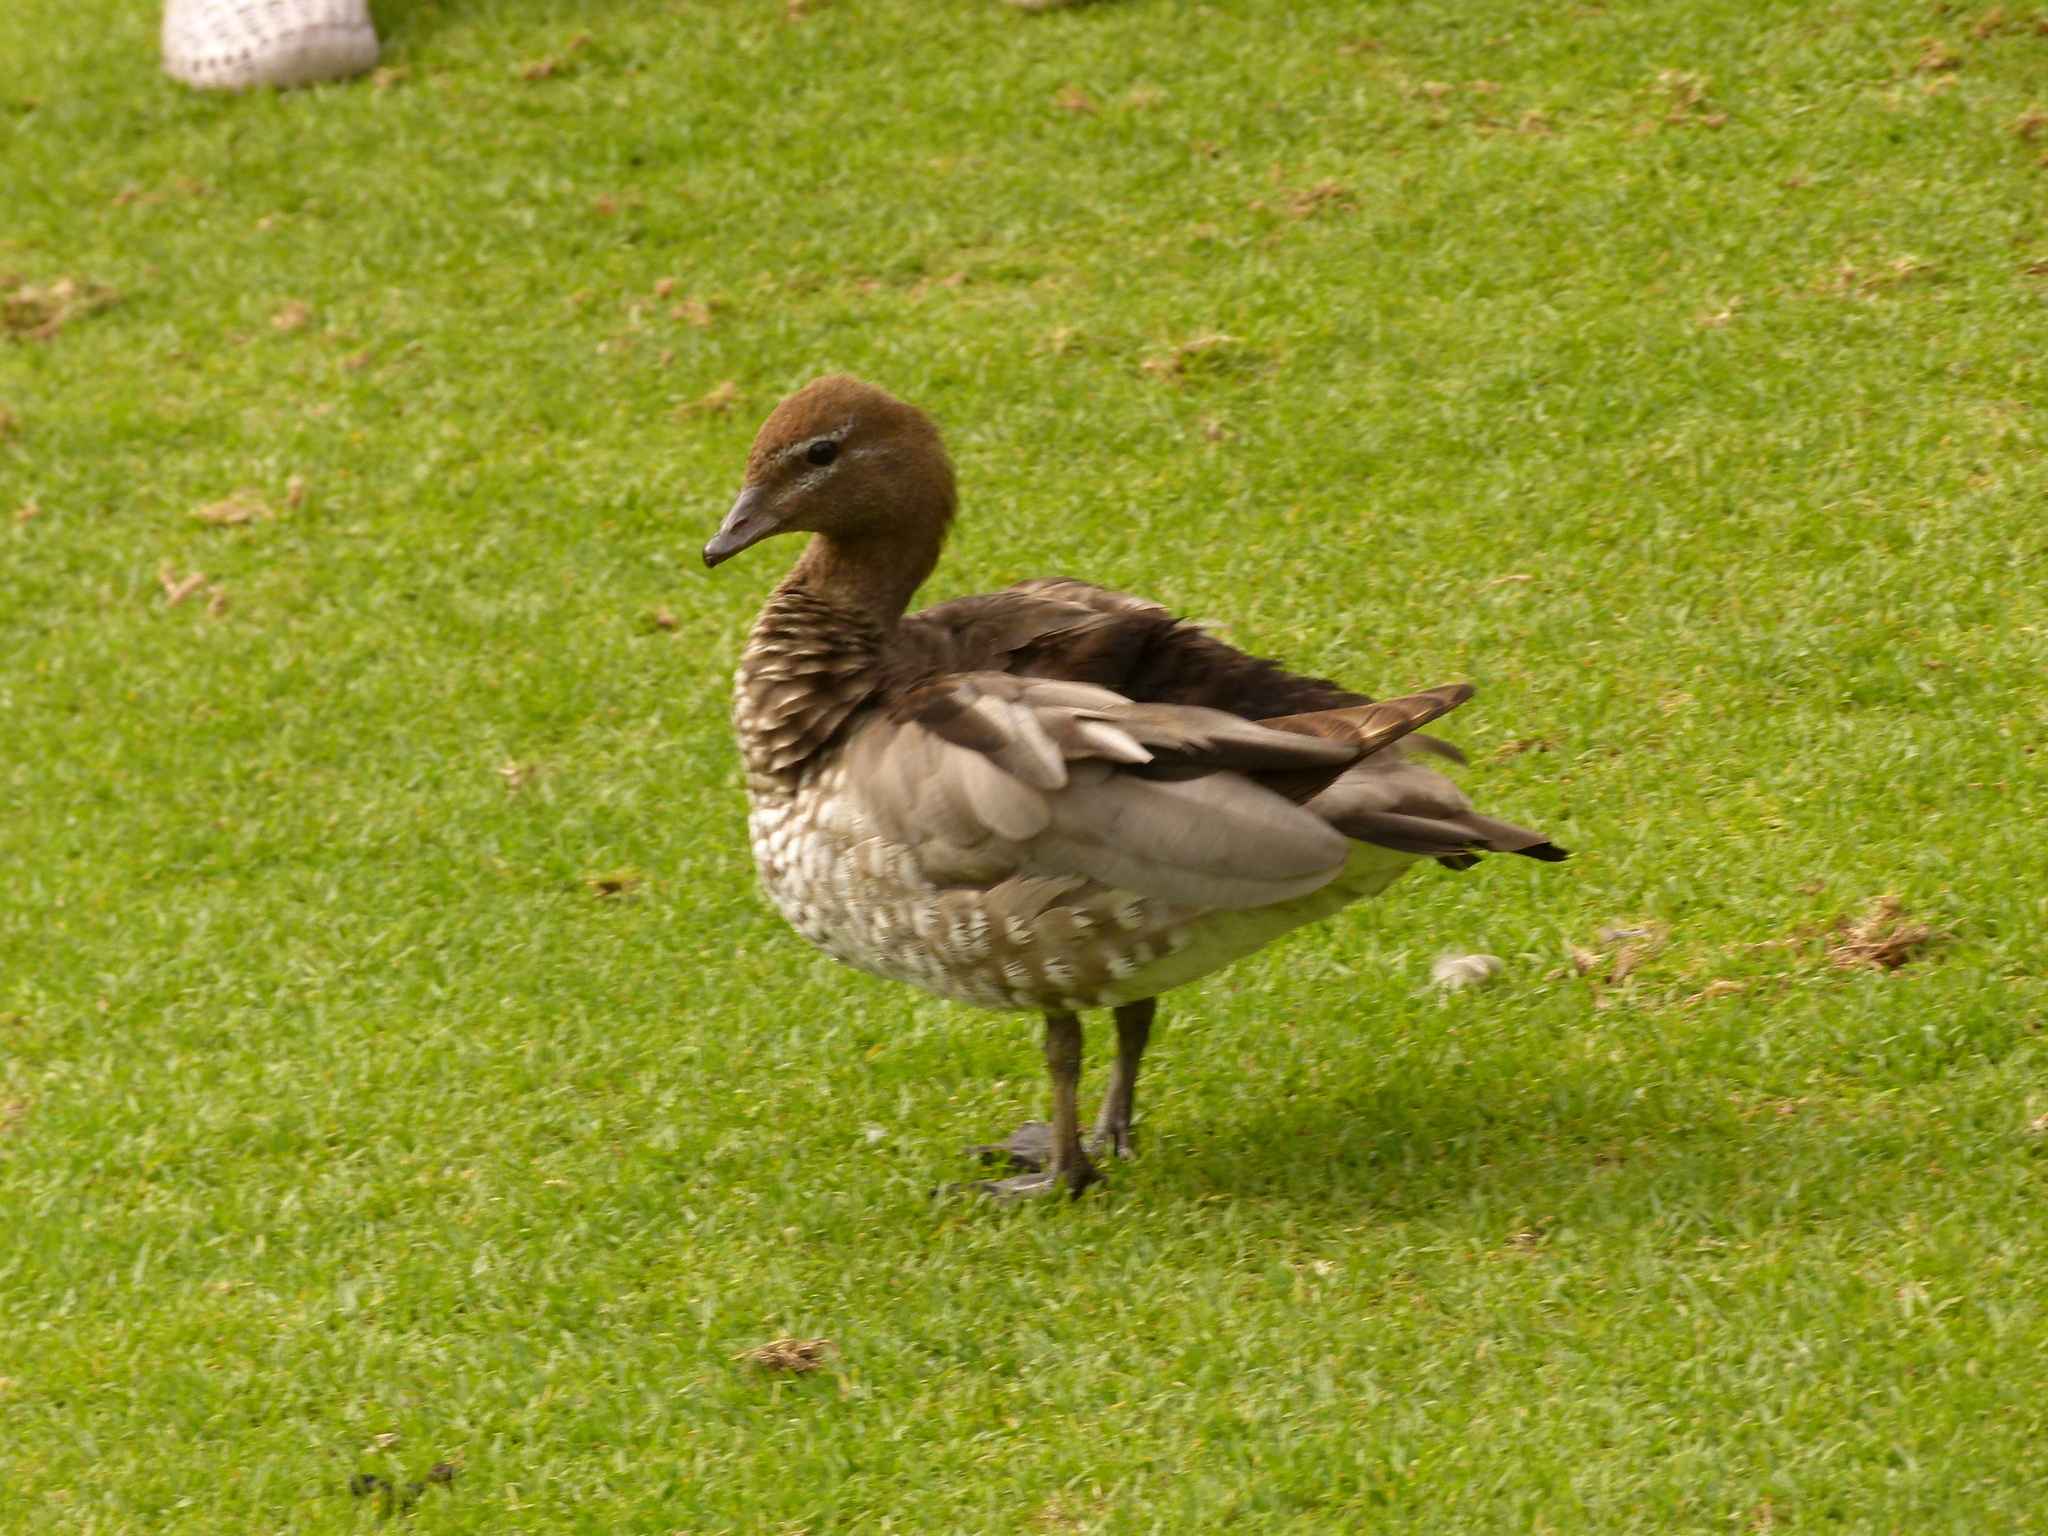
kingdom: Animalia
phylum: Chordata
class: Aves
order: Anseriformes
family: Anatidae
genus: Chenonetta
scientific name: Chenonetta jubata
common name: Maned duck
